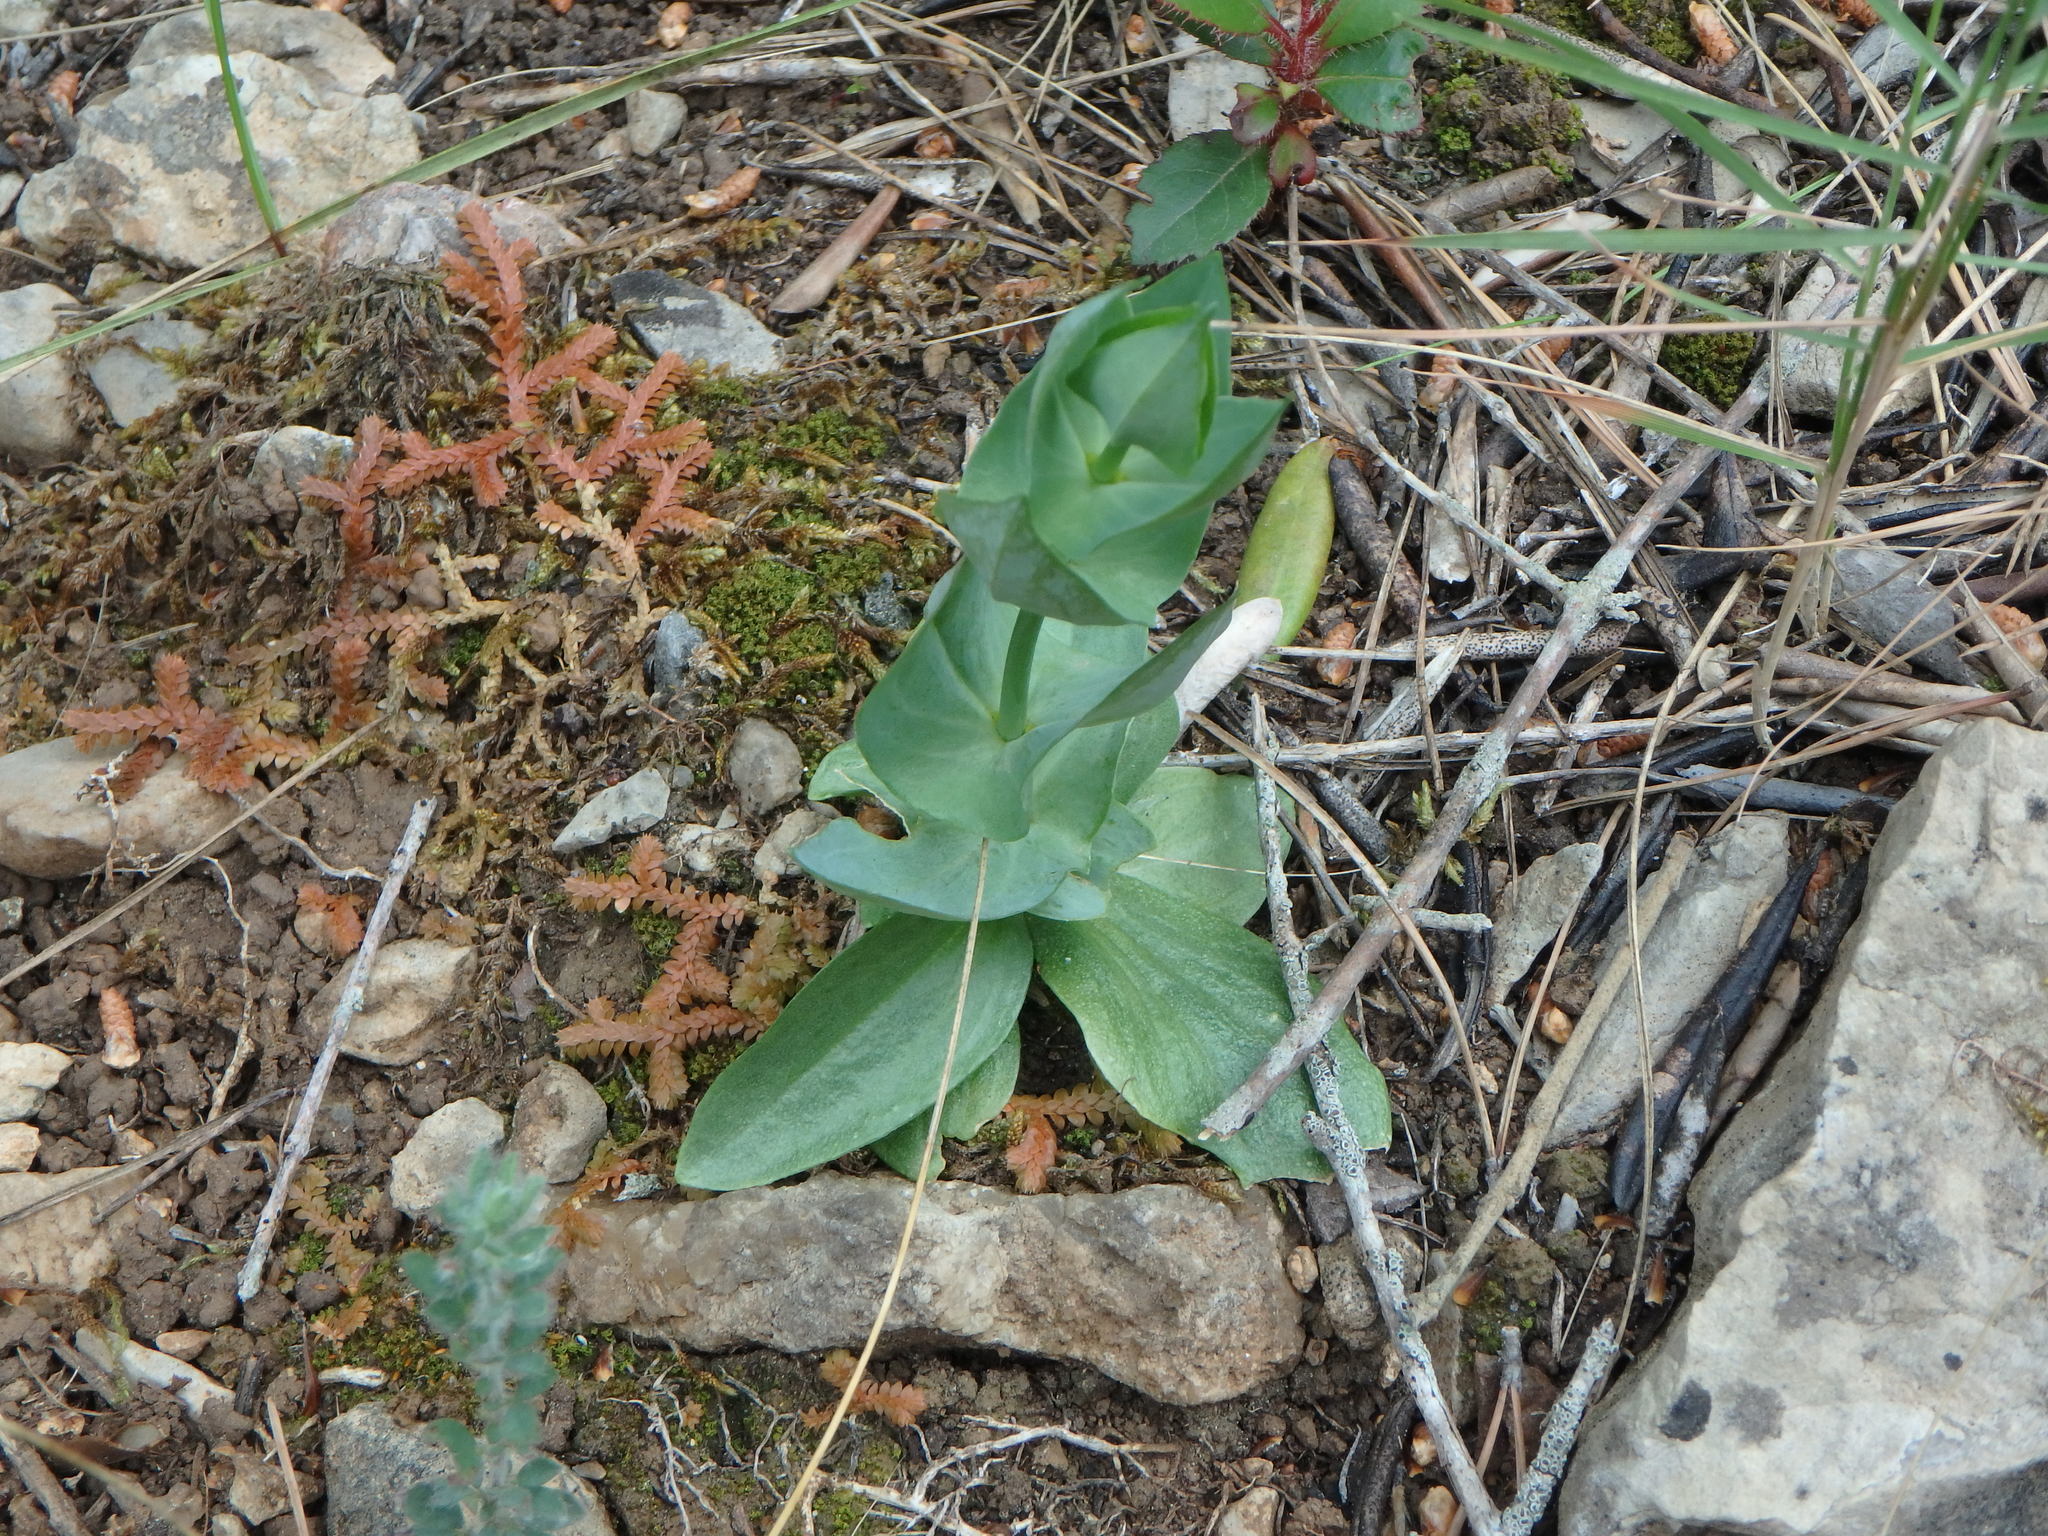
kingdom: Plantae
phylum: Tracheophyta
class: Magnoliopsida
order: Gentianales
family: Gentianaceae
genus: Blackstonia
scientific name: Blackstonia perfoliata
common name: Yellow-wort
